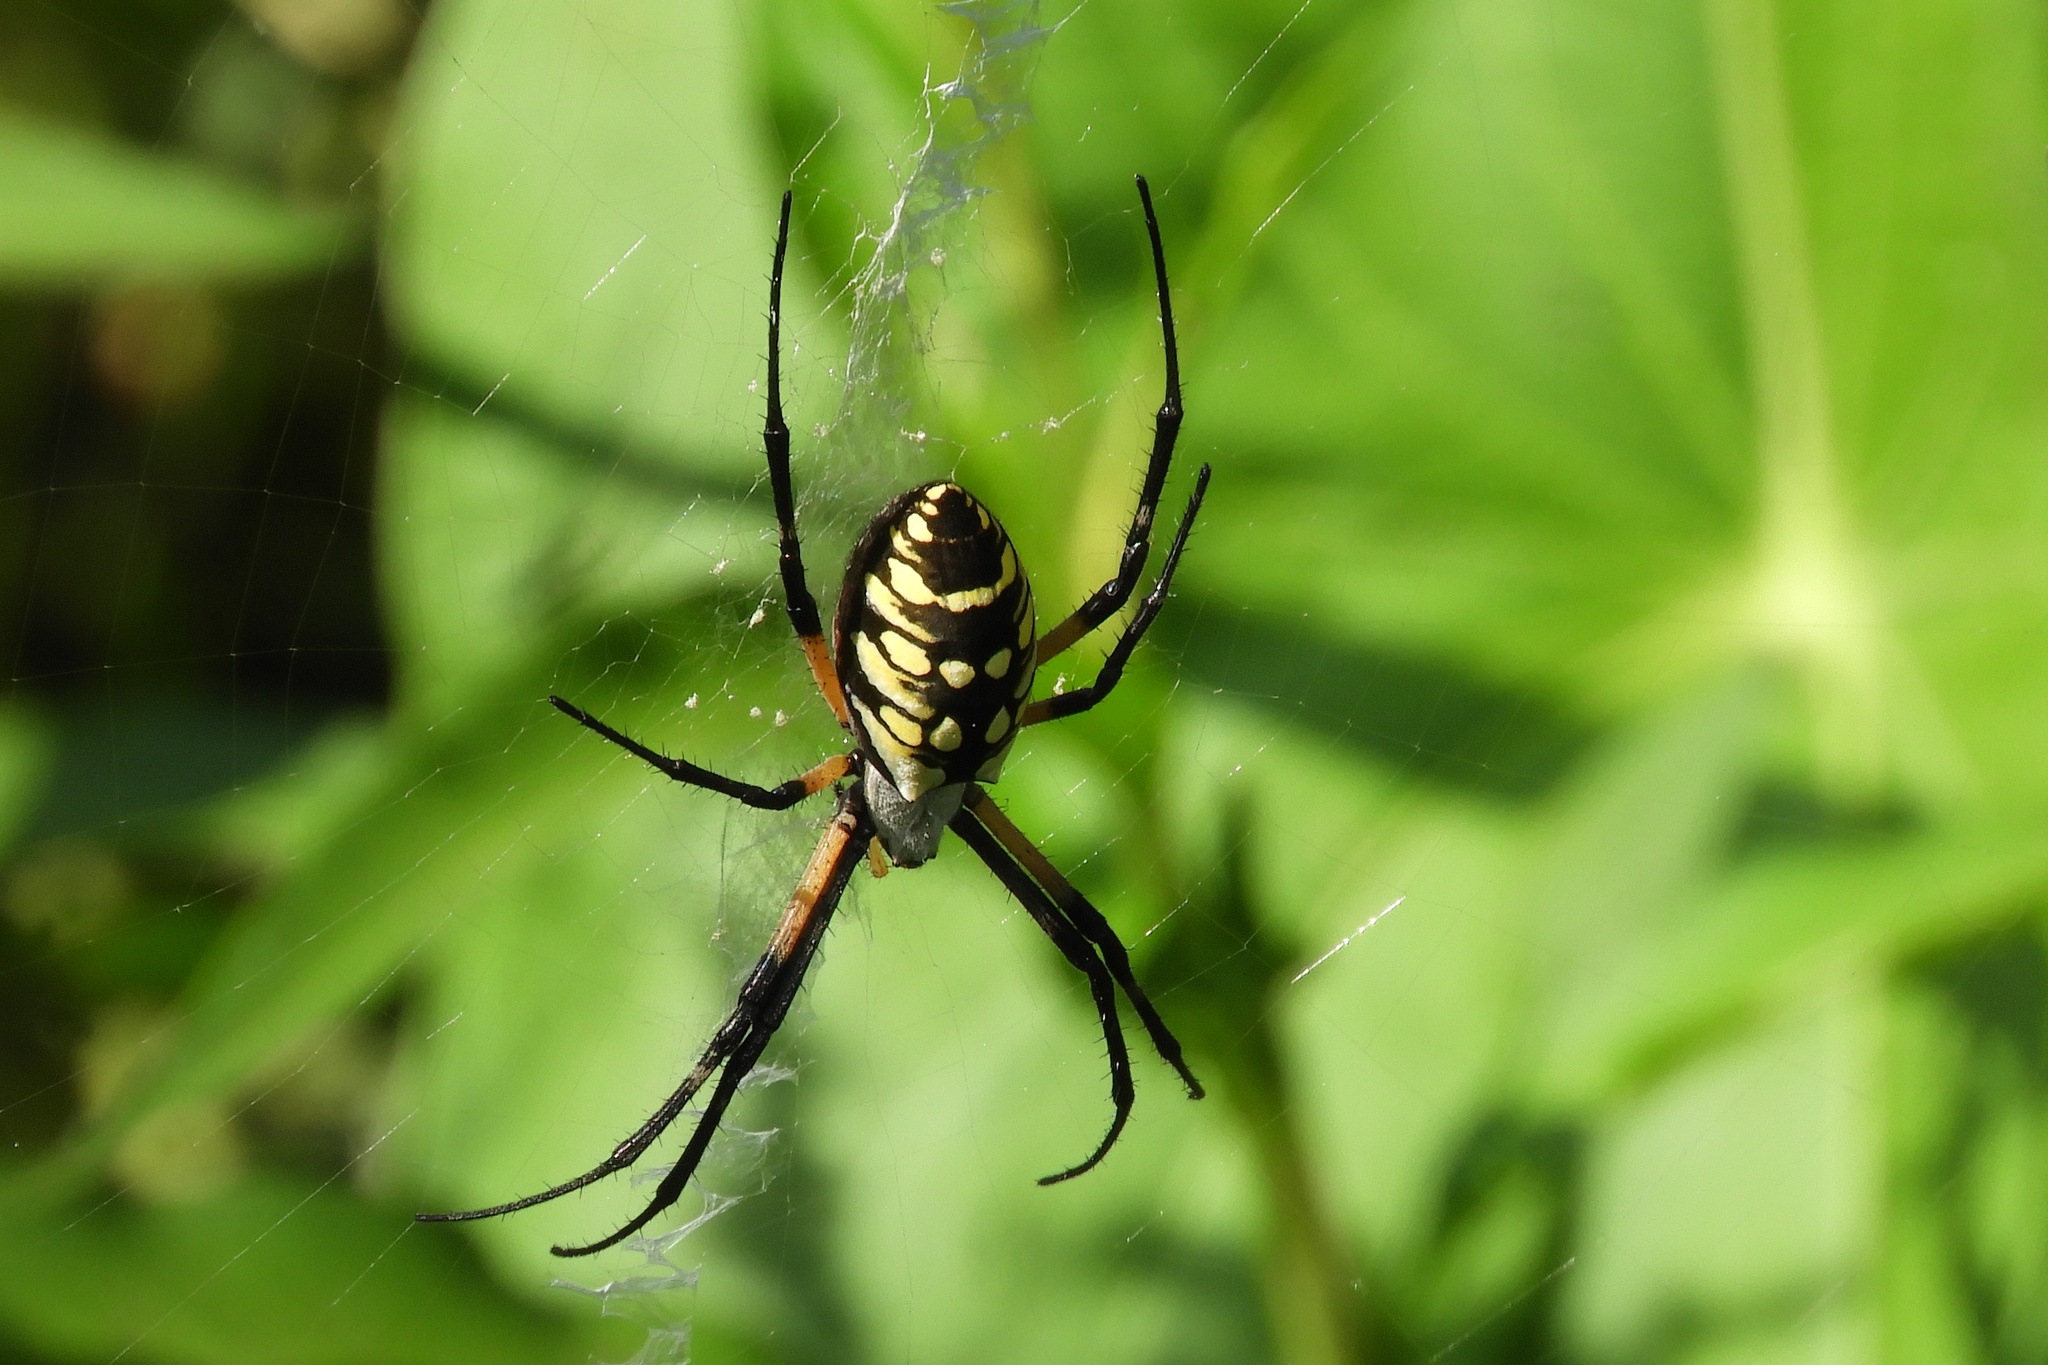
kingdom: Animalia
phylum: Arthropoda
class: Arachnida
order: Araneae
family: Araneidae
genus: Argiope
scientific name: Argiope aurantia
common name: Orb weavers
